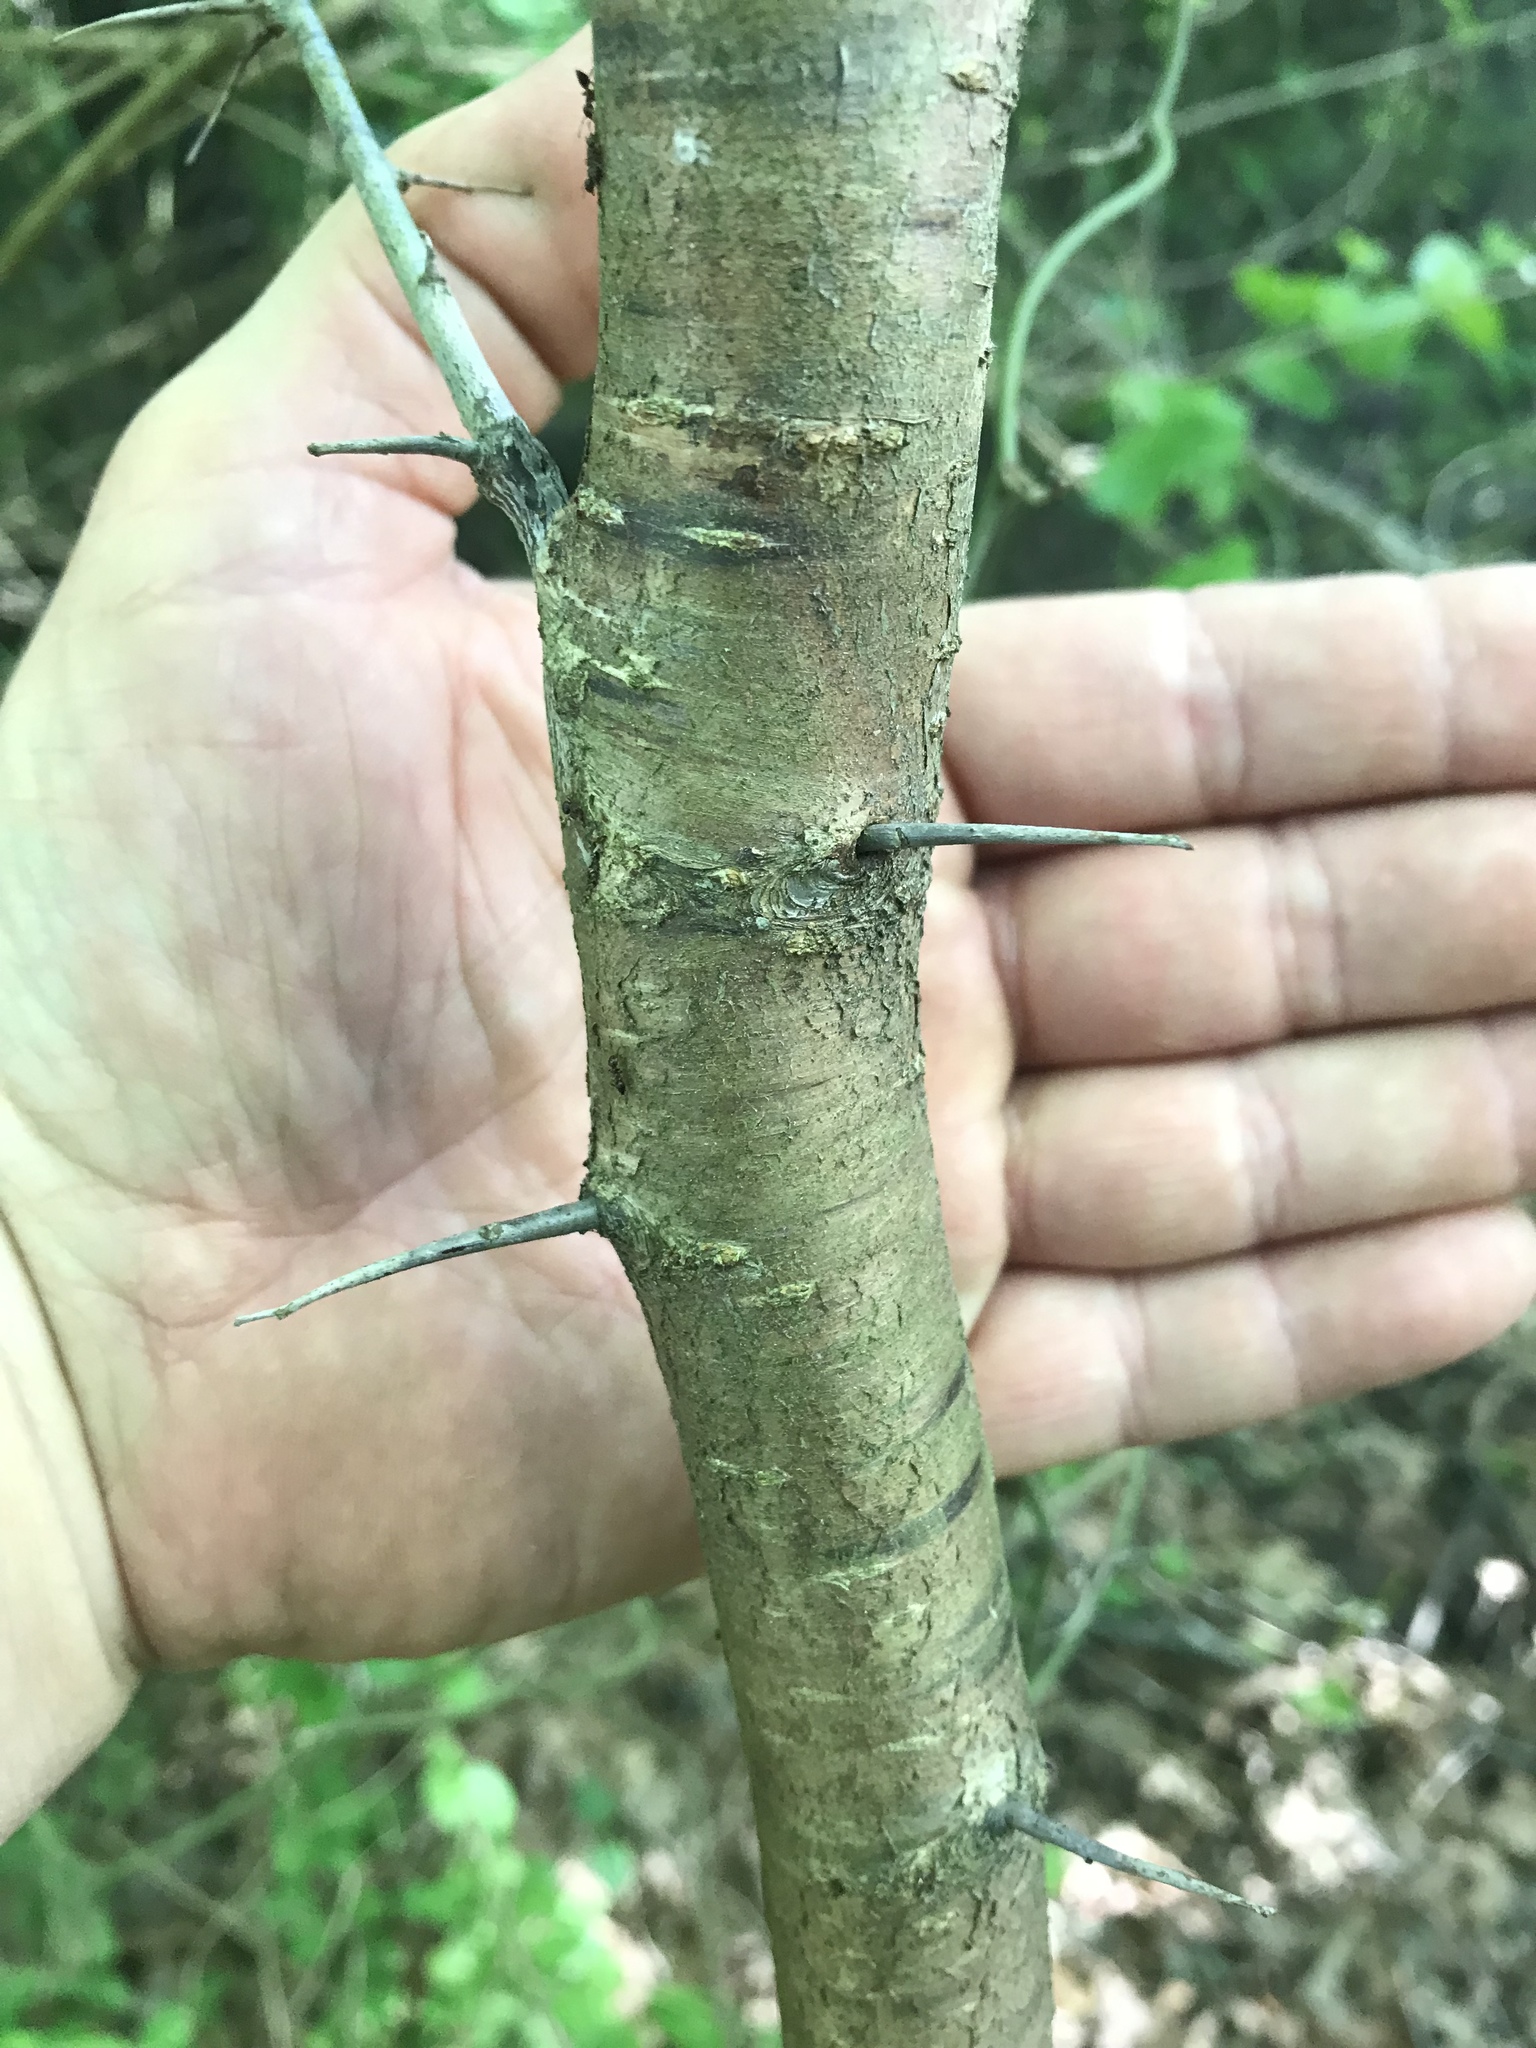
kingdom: Plantae
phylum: Tracheophyta
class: Magnoliopsida
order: Rosales
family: Rosaceae
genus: Prunus
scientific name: Prunus mexicana
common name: Mexican plum
